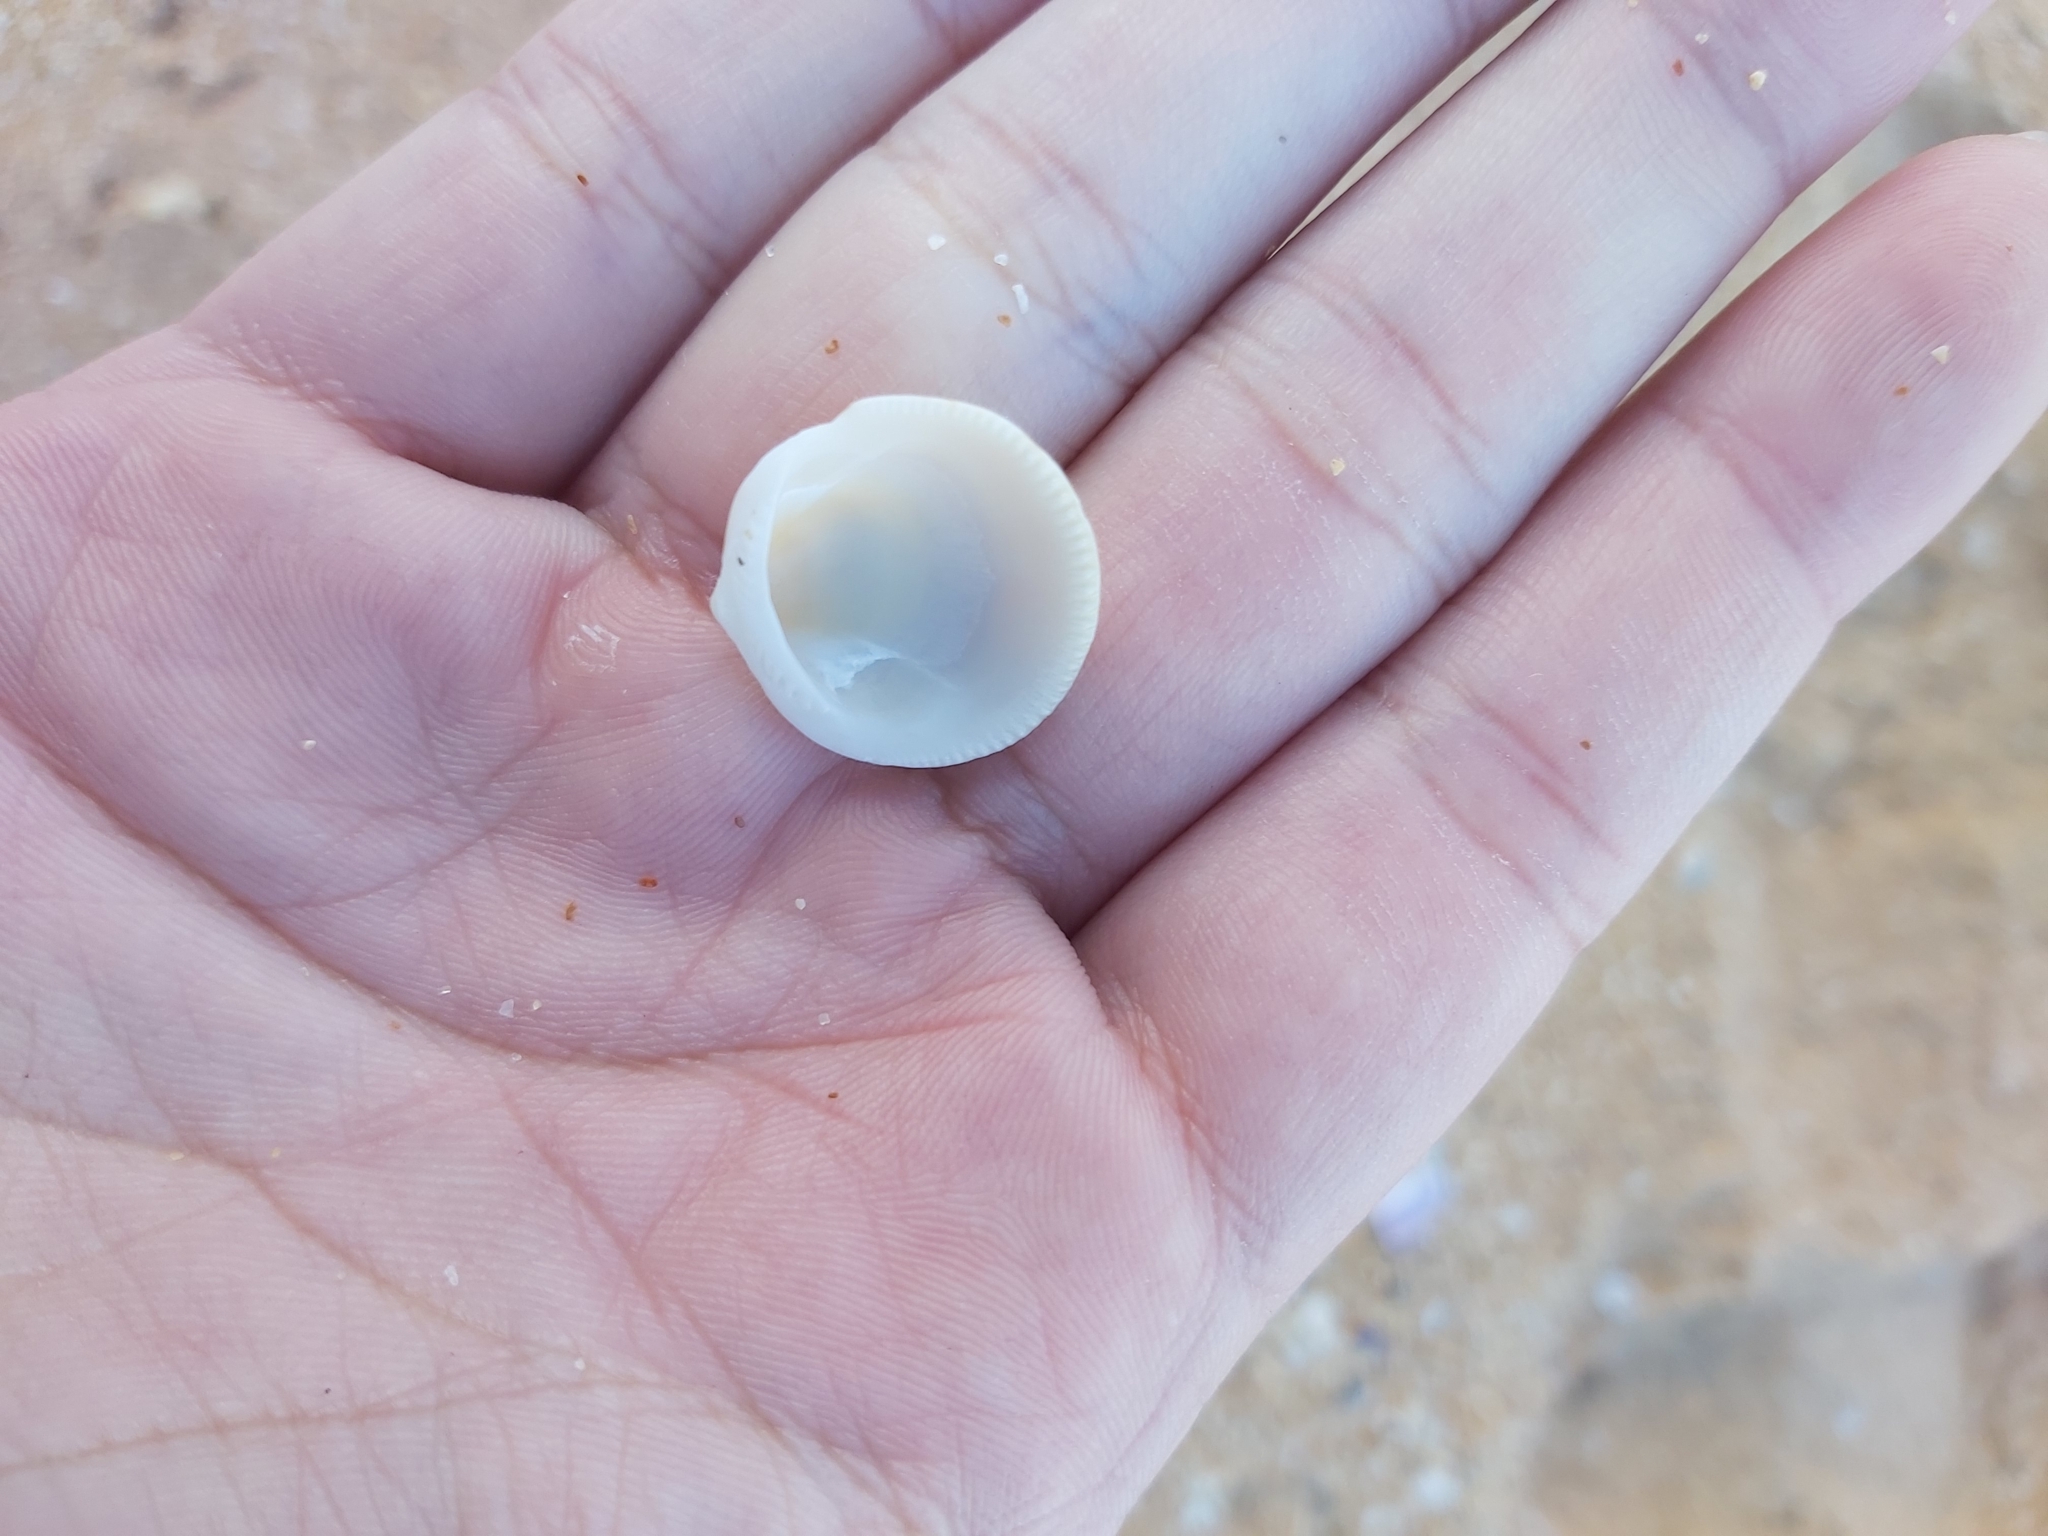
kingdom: Animalia
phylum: Mollusca
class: Bivalvia
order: Arcida
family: Glycymerididae
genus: Glycymeris
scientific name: Glycymeris grayana
